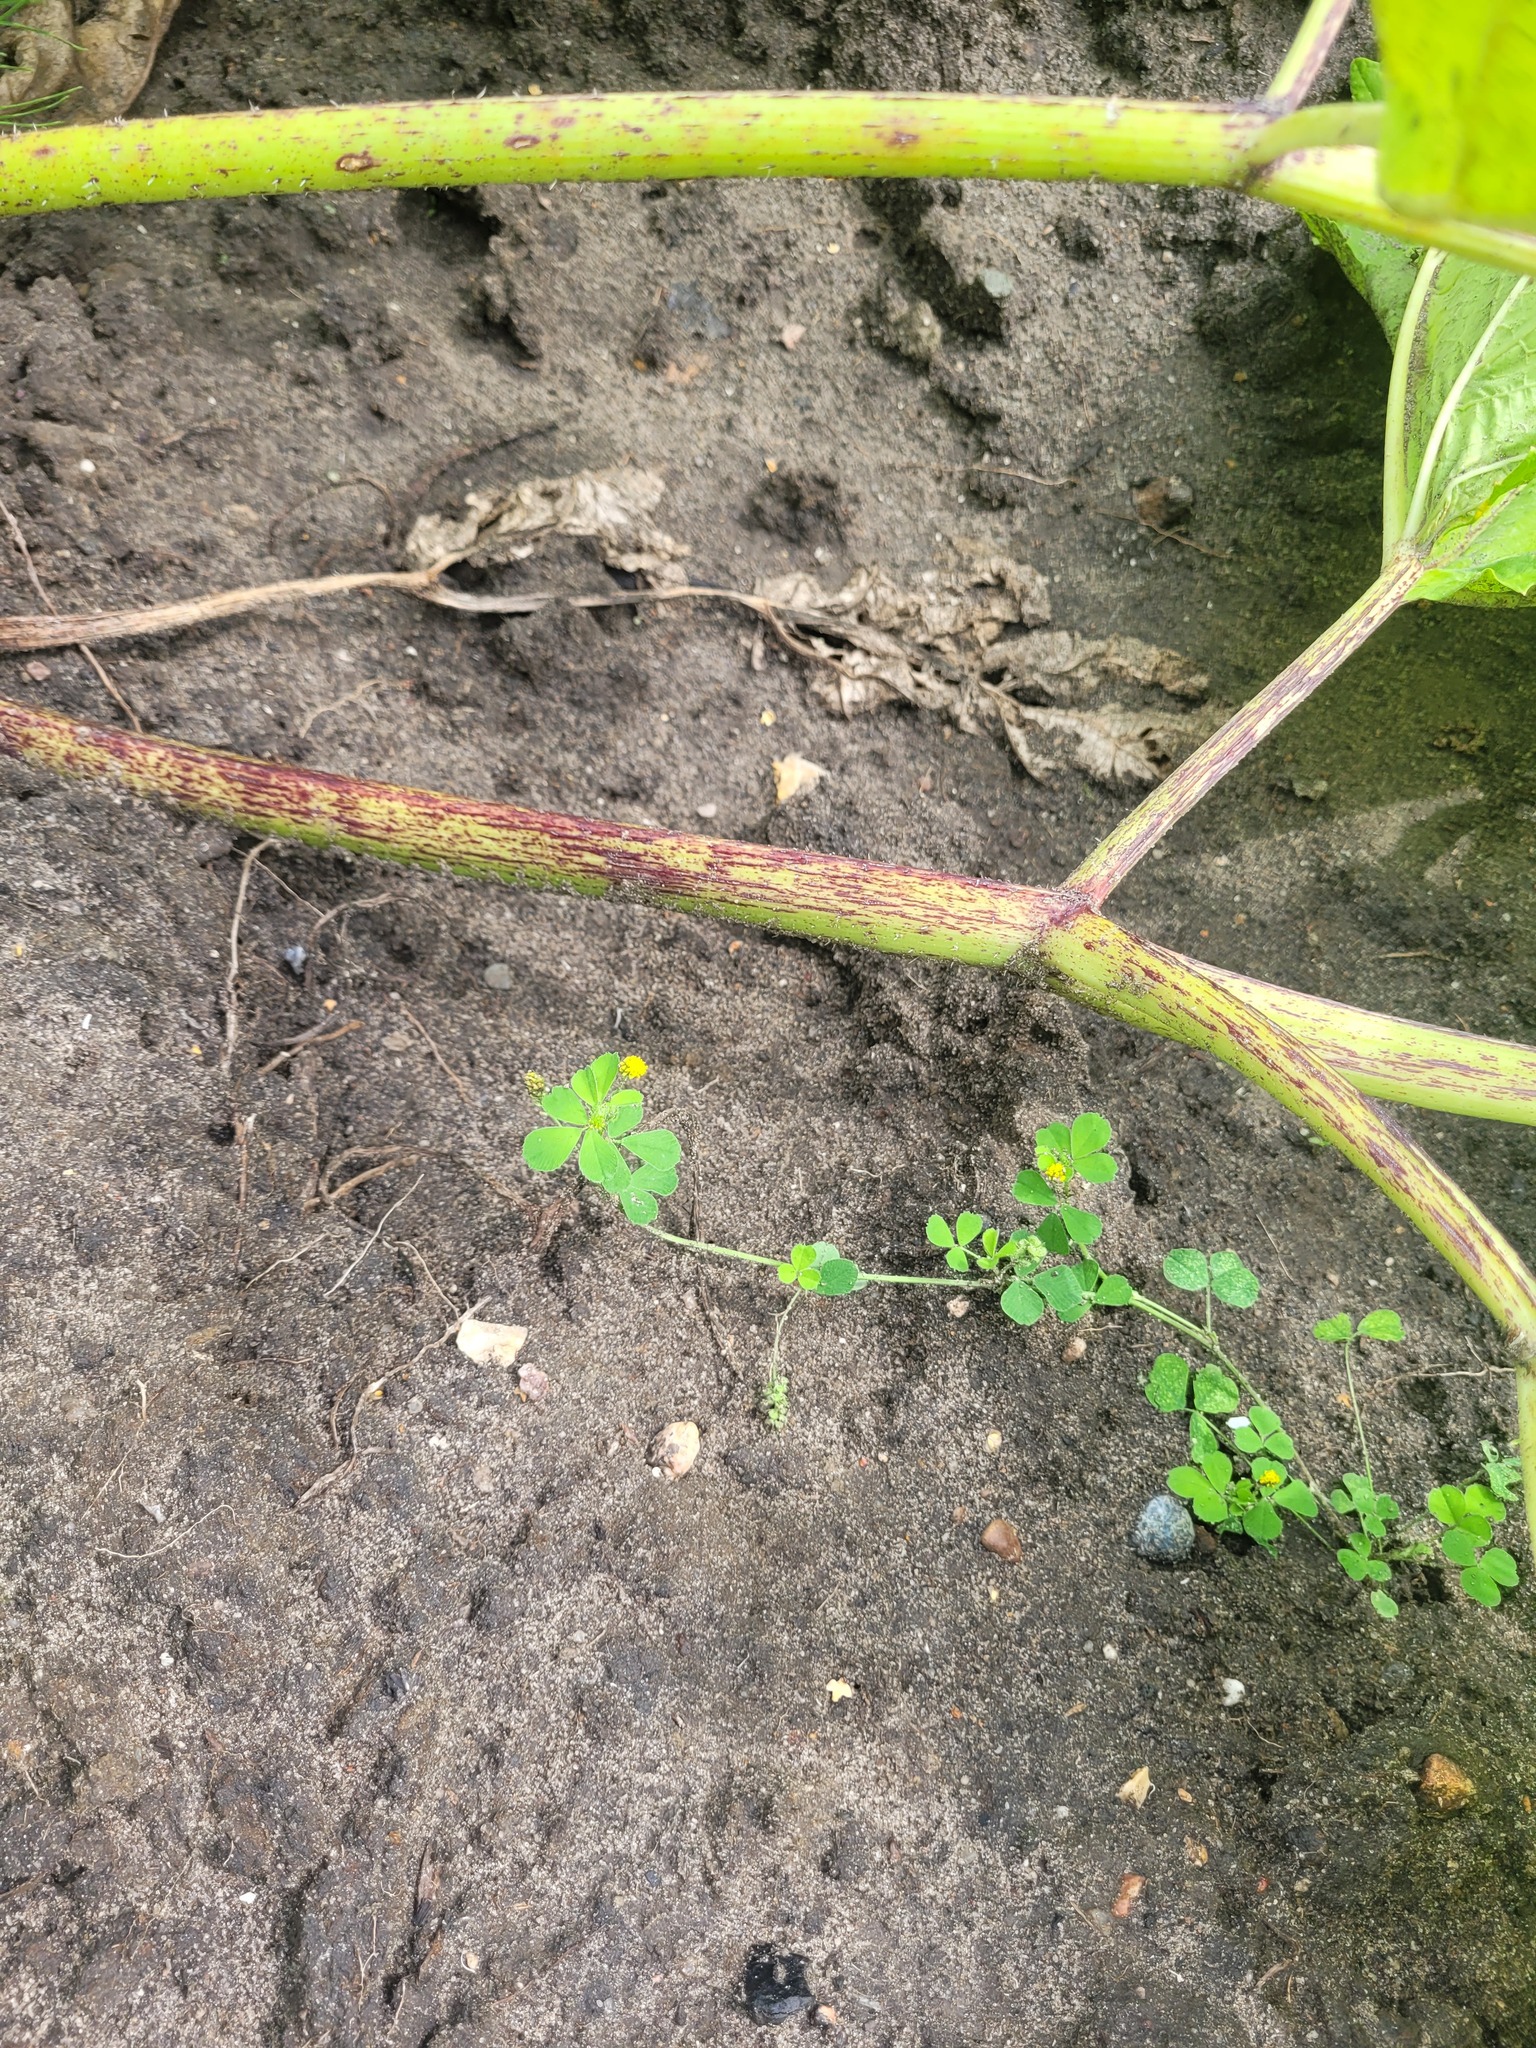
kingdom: Plantae
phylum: Tracheophyta
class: Magnoliopsida
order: Fabales
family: Fabaceae
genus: Medicago
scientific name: Medicago lupulina
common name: Black medick
